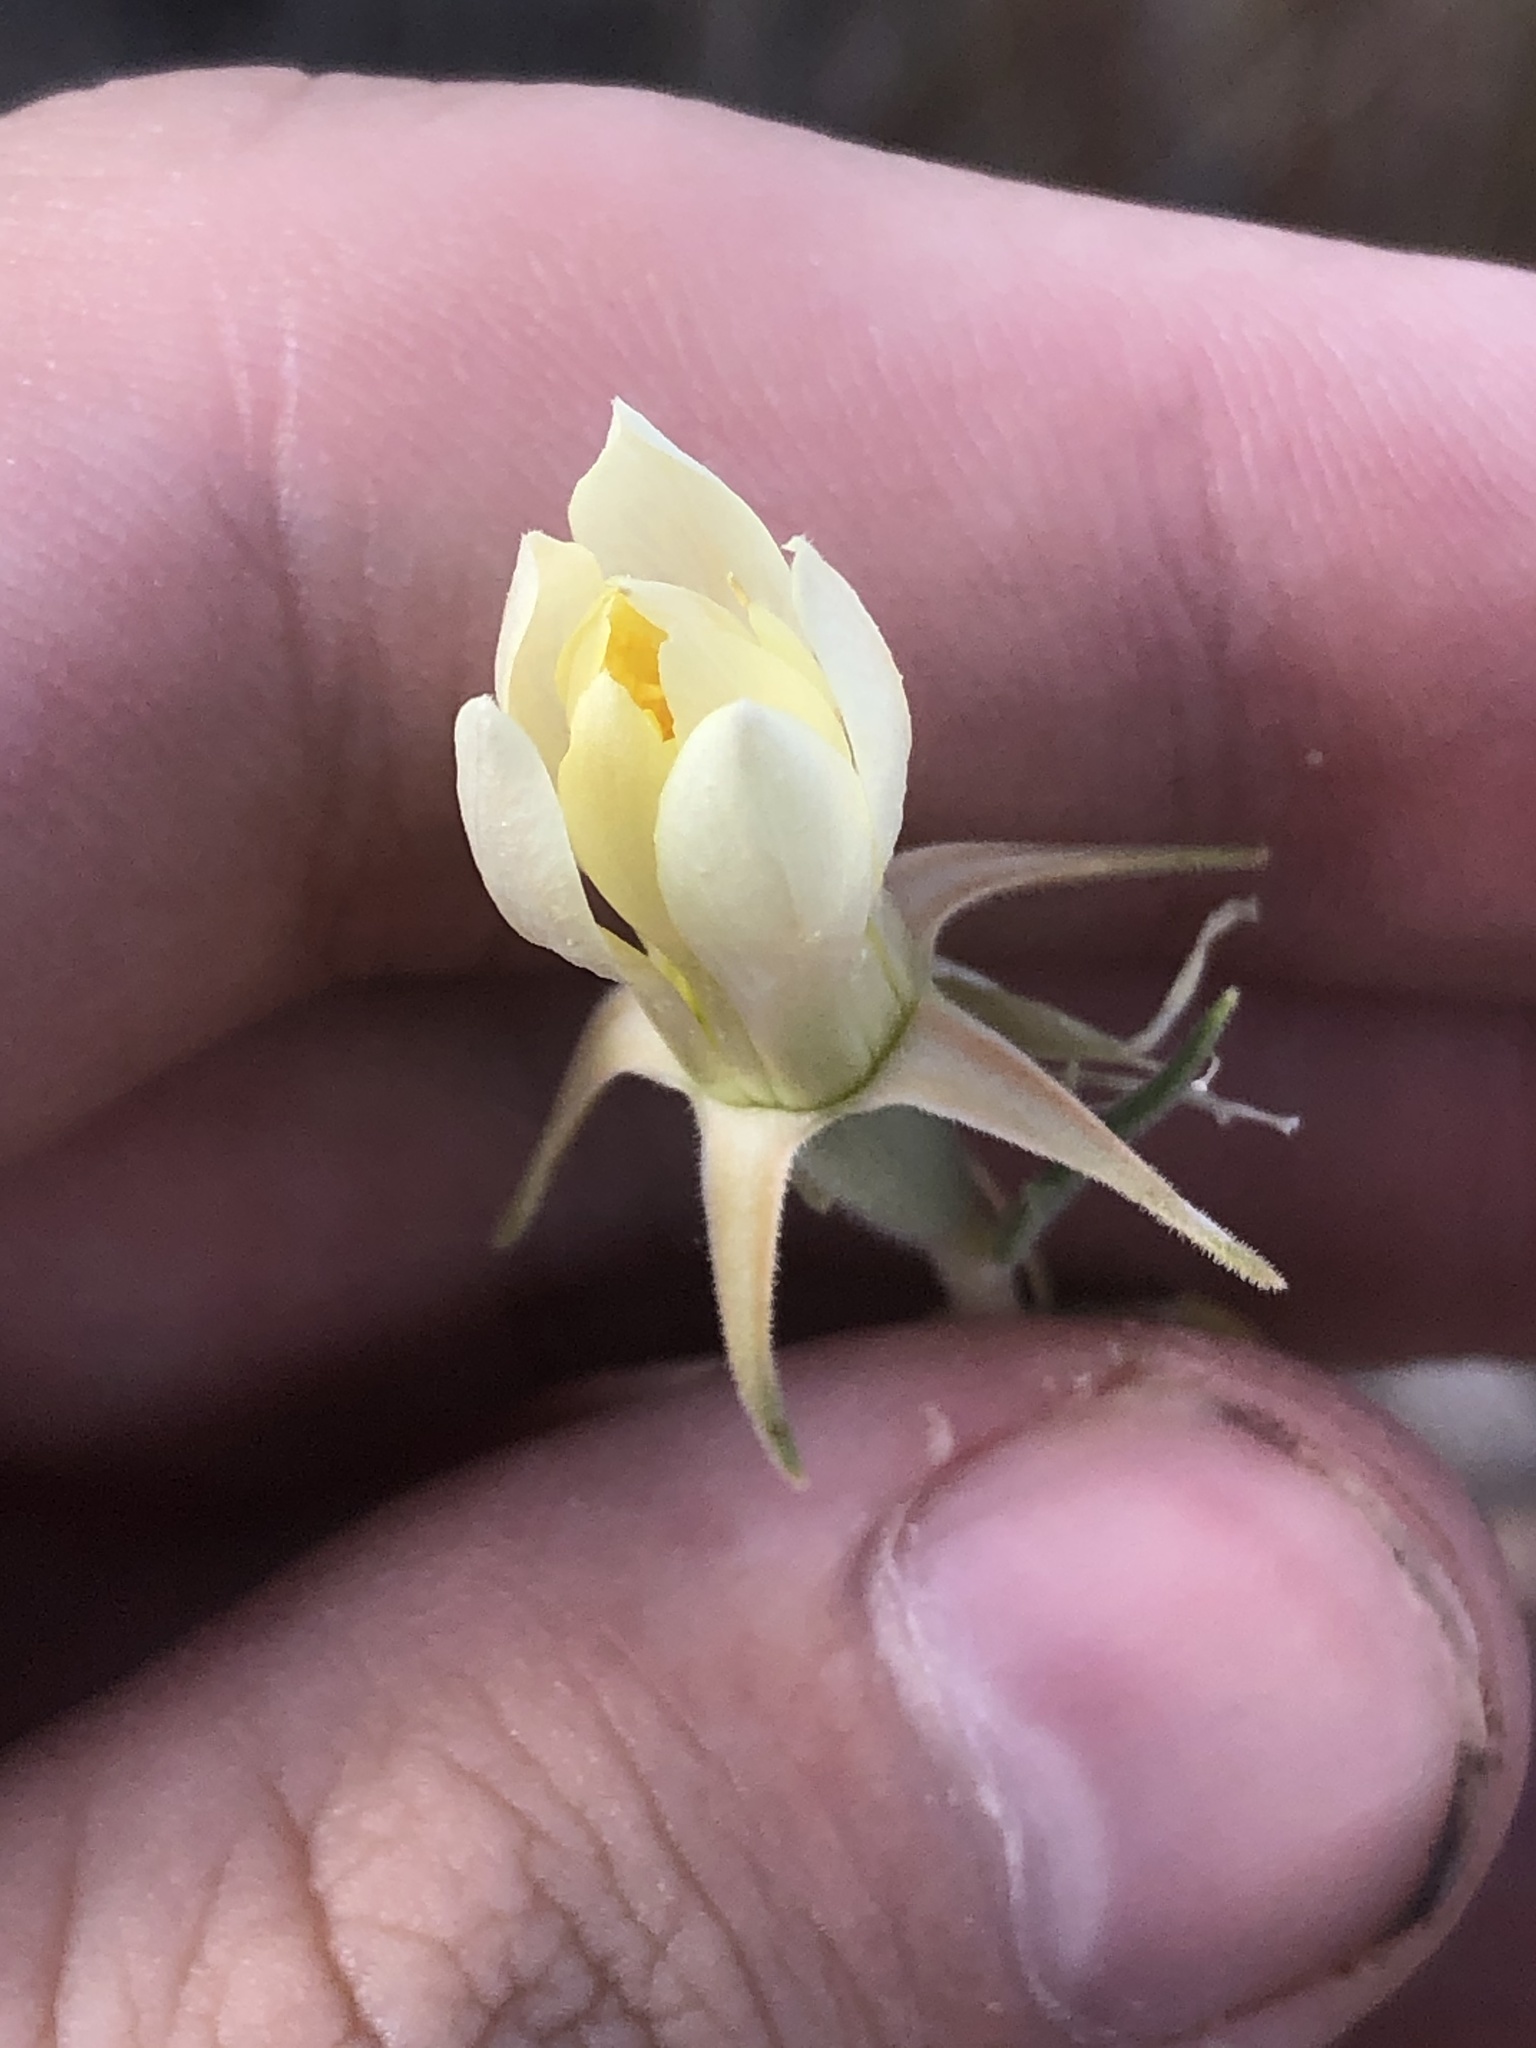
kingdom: Plantae
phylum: Tracheophyta
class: Magnoliopsida
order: Cornales
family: Loasaceae
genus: Mentzelia
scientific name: Mentzelia multiflora
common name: Adonis blazingstar
